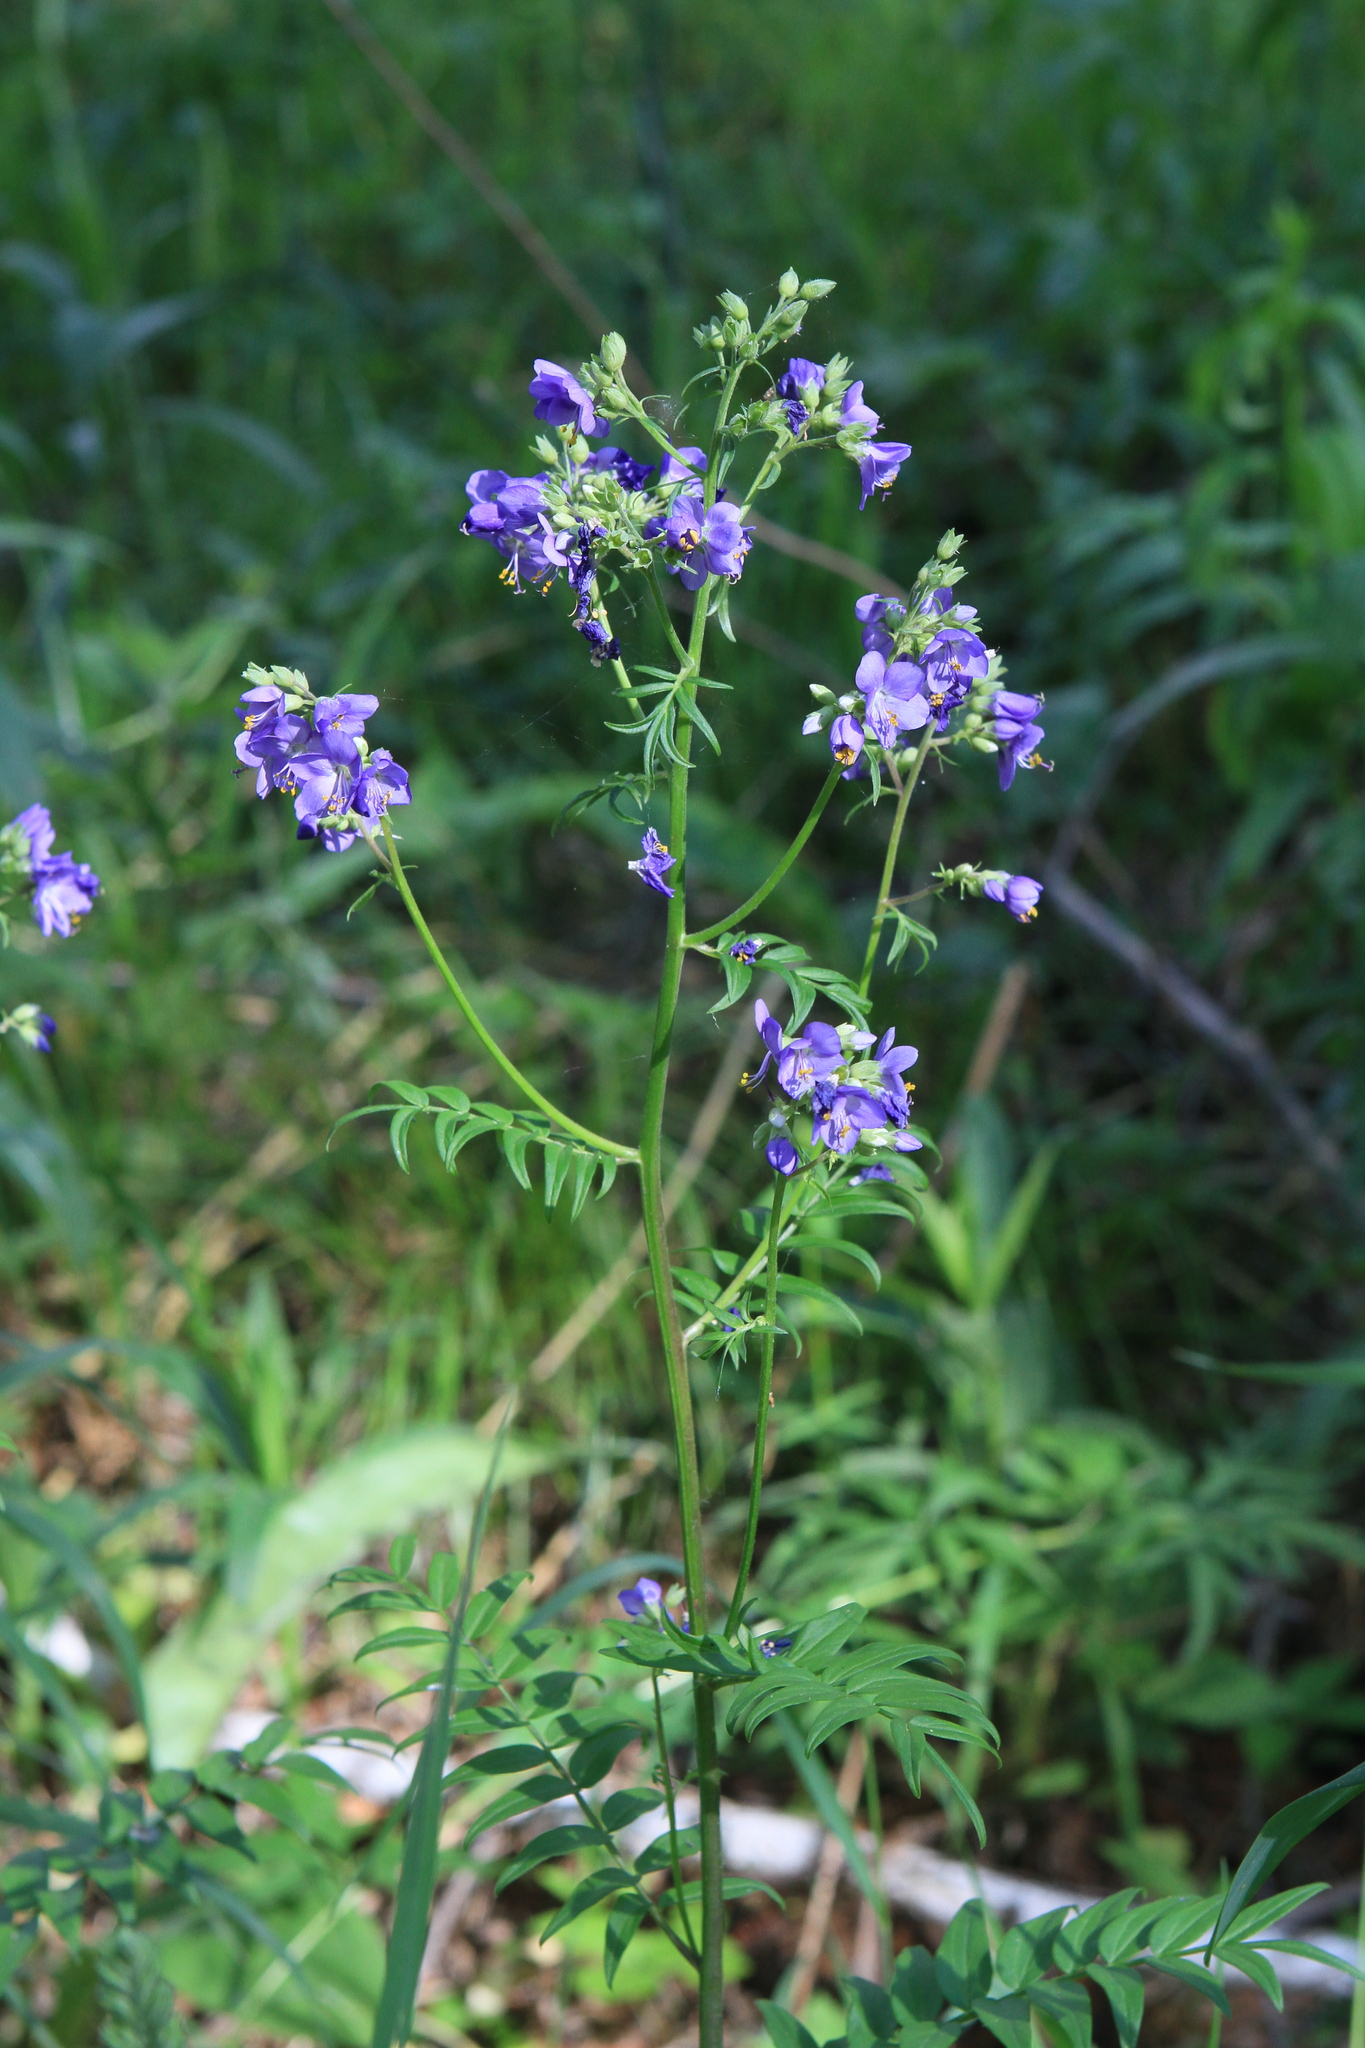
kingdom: Plantae
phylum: Tracheophyta
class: Magnoliopsida
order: Ericales
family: Polemoniaceae
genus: Polemonium
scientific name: Polemonium caeruleum
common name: Jacob's-ladder
